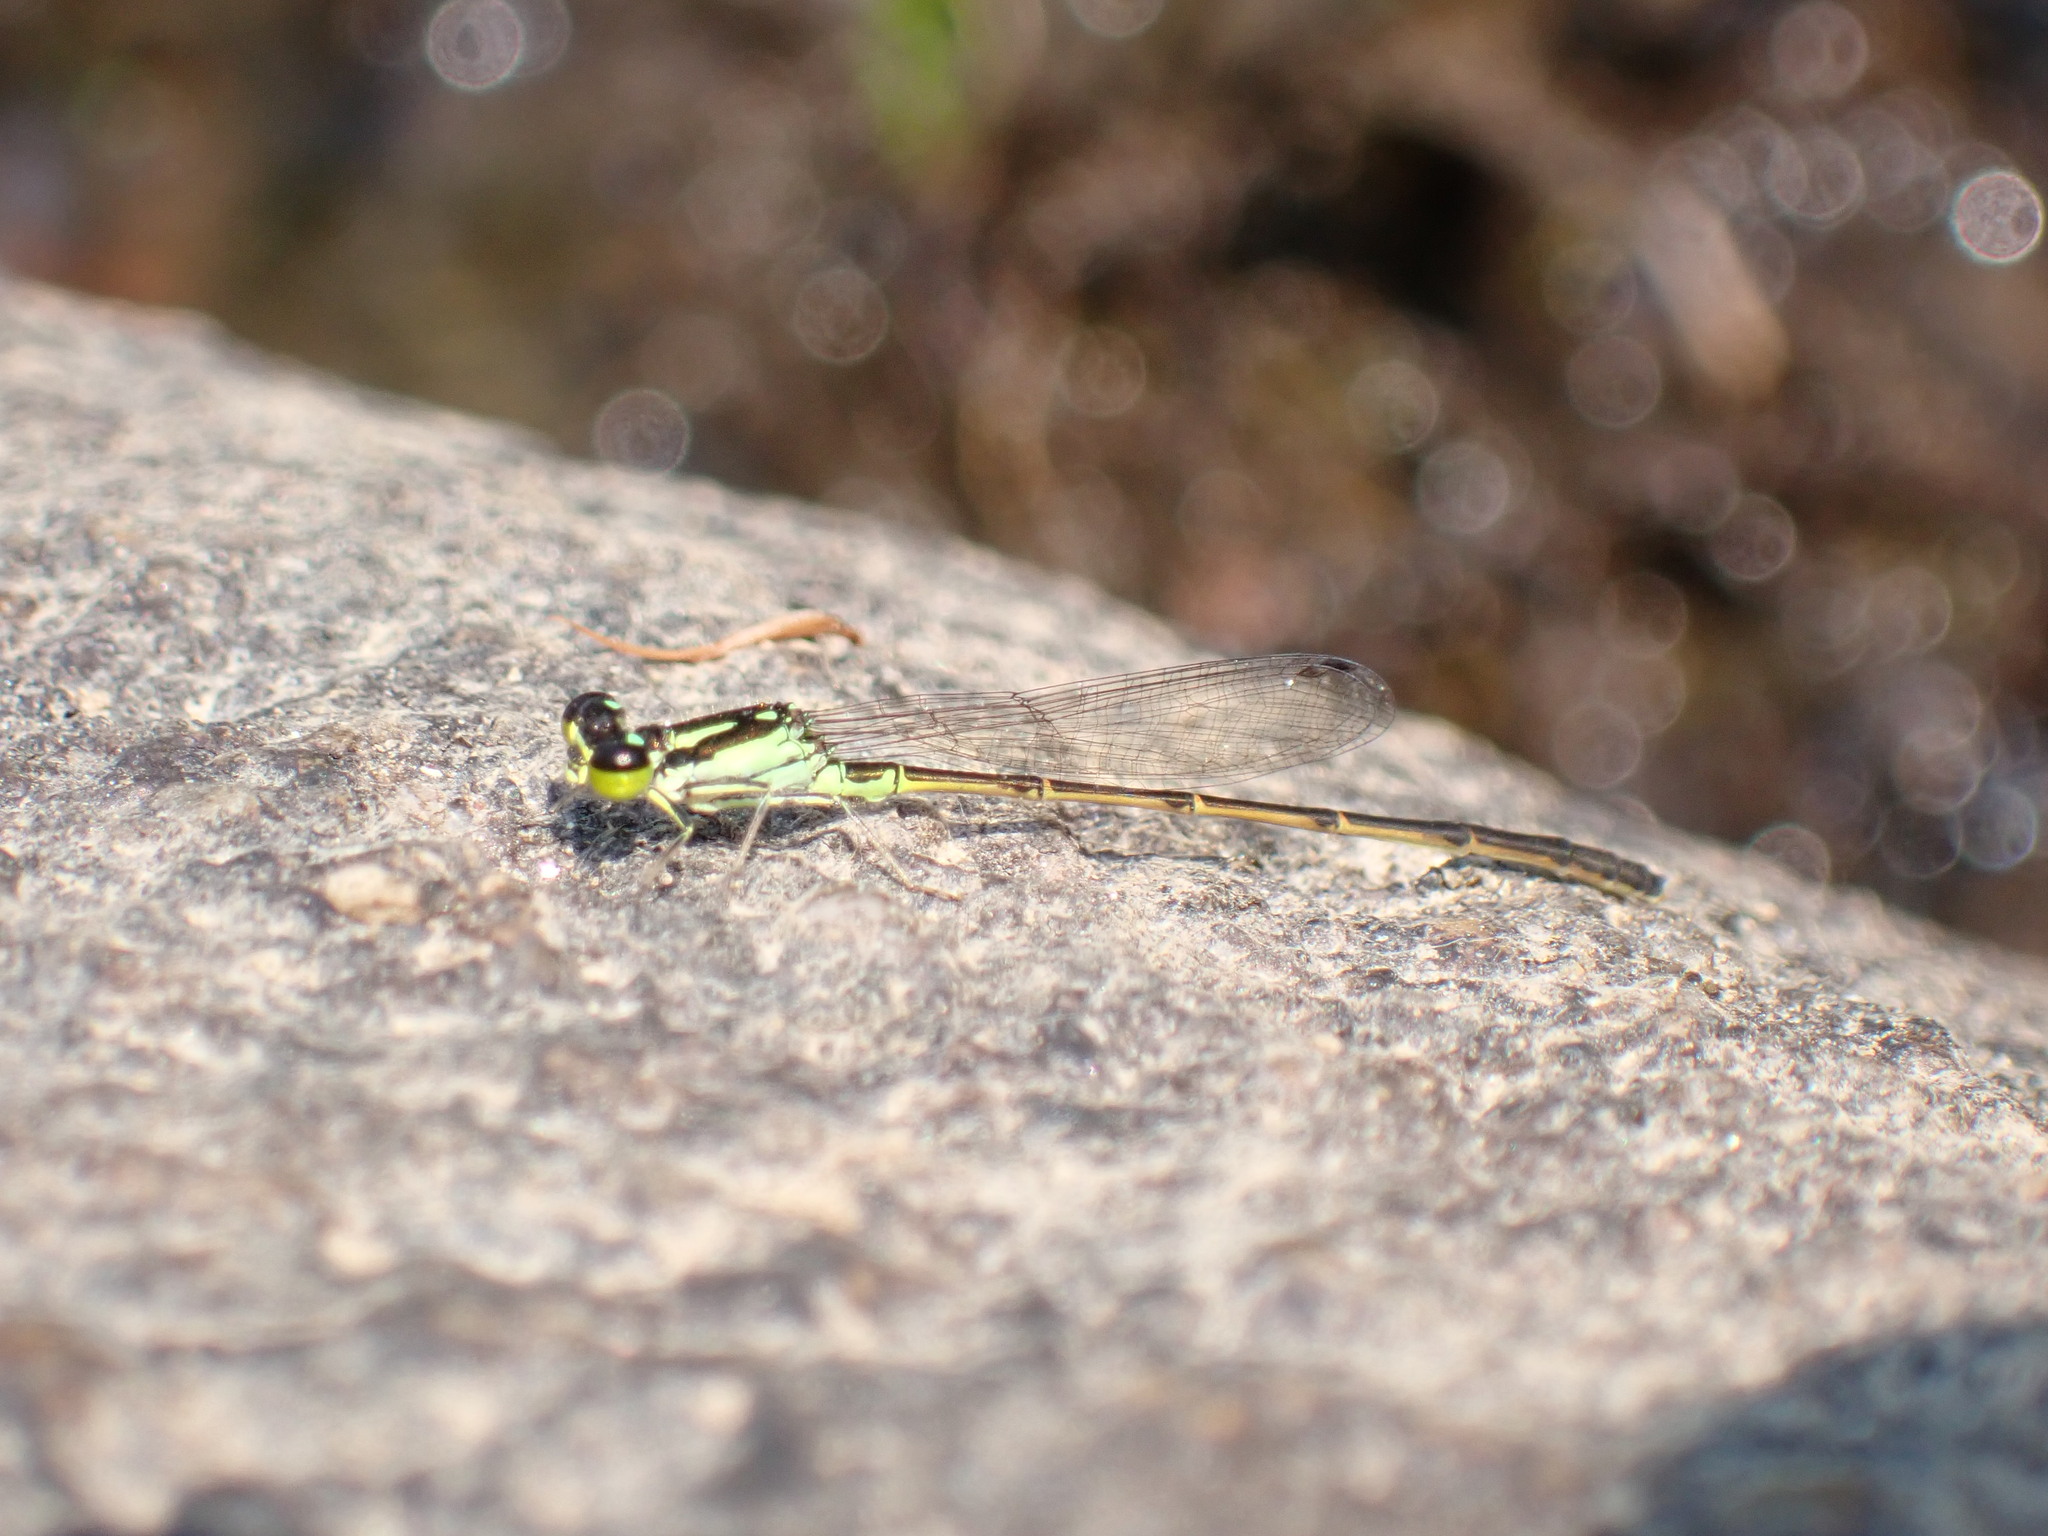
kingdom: Animalia
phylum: Arthropoda
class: Insecta
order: Odonata
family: Coenagrionidae
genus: Ischnura
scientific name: Ischnura posita
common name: Fragile forktail
